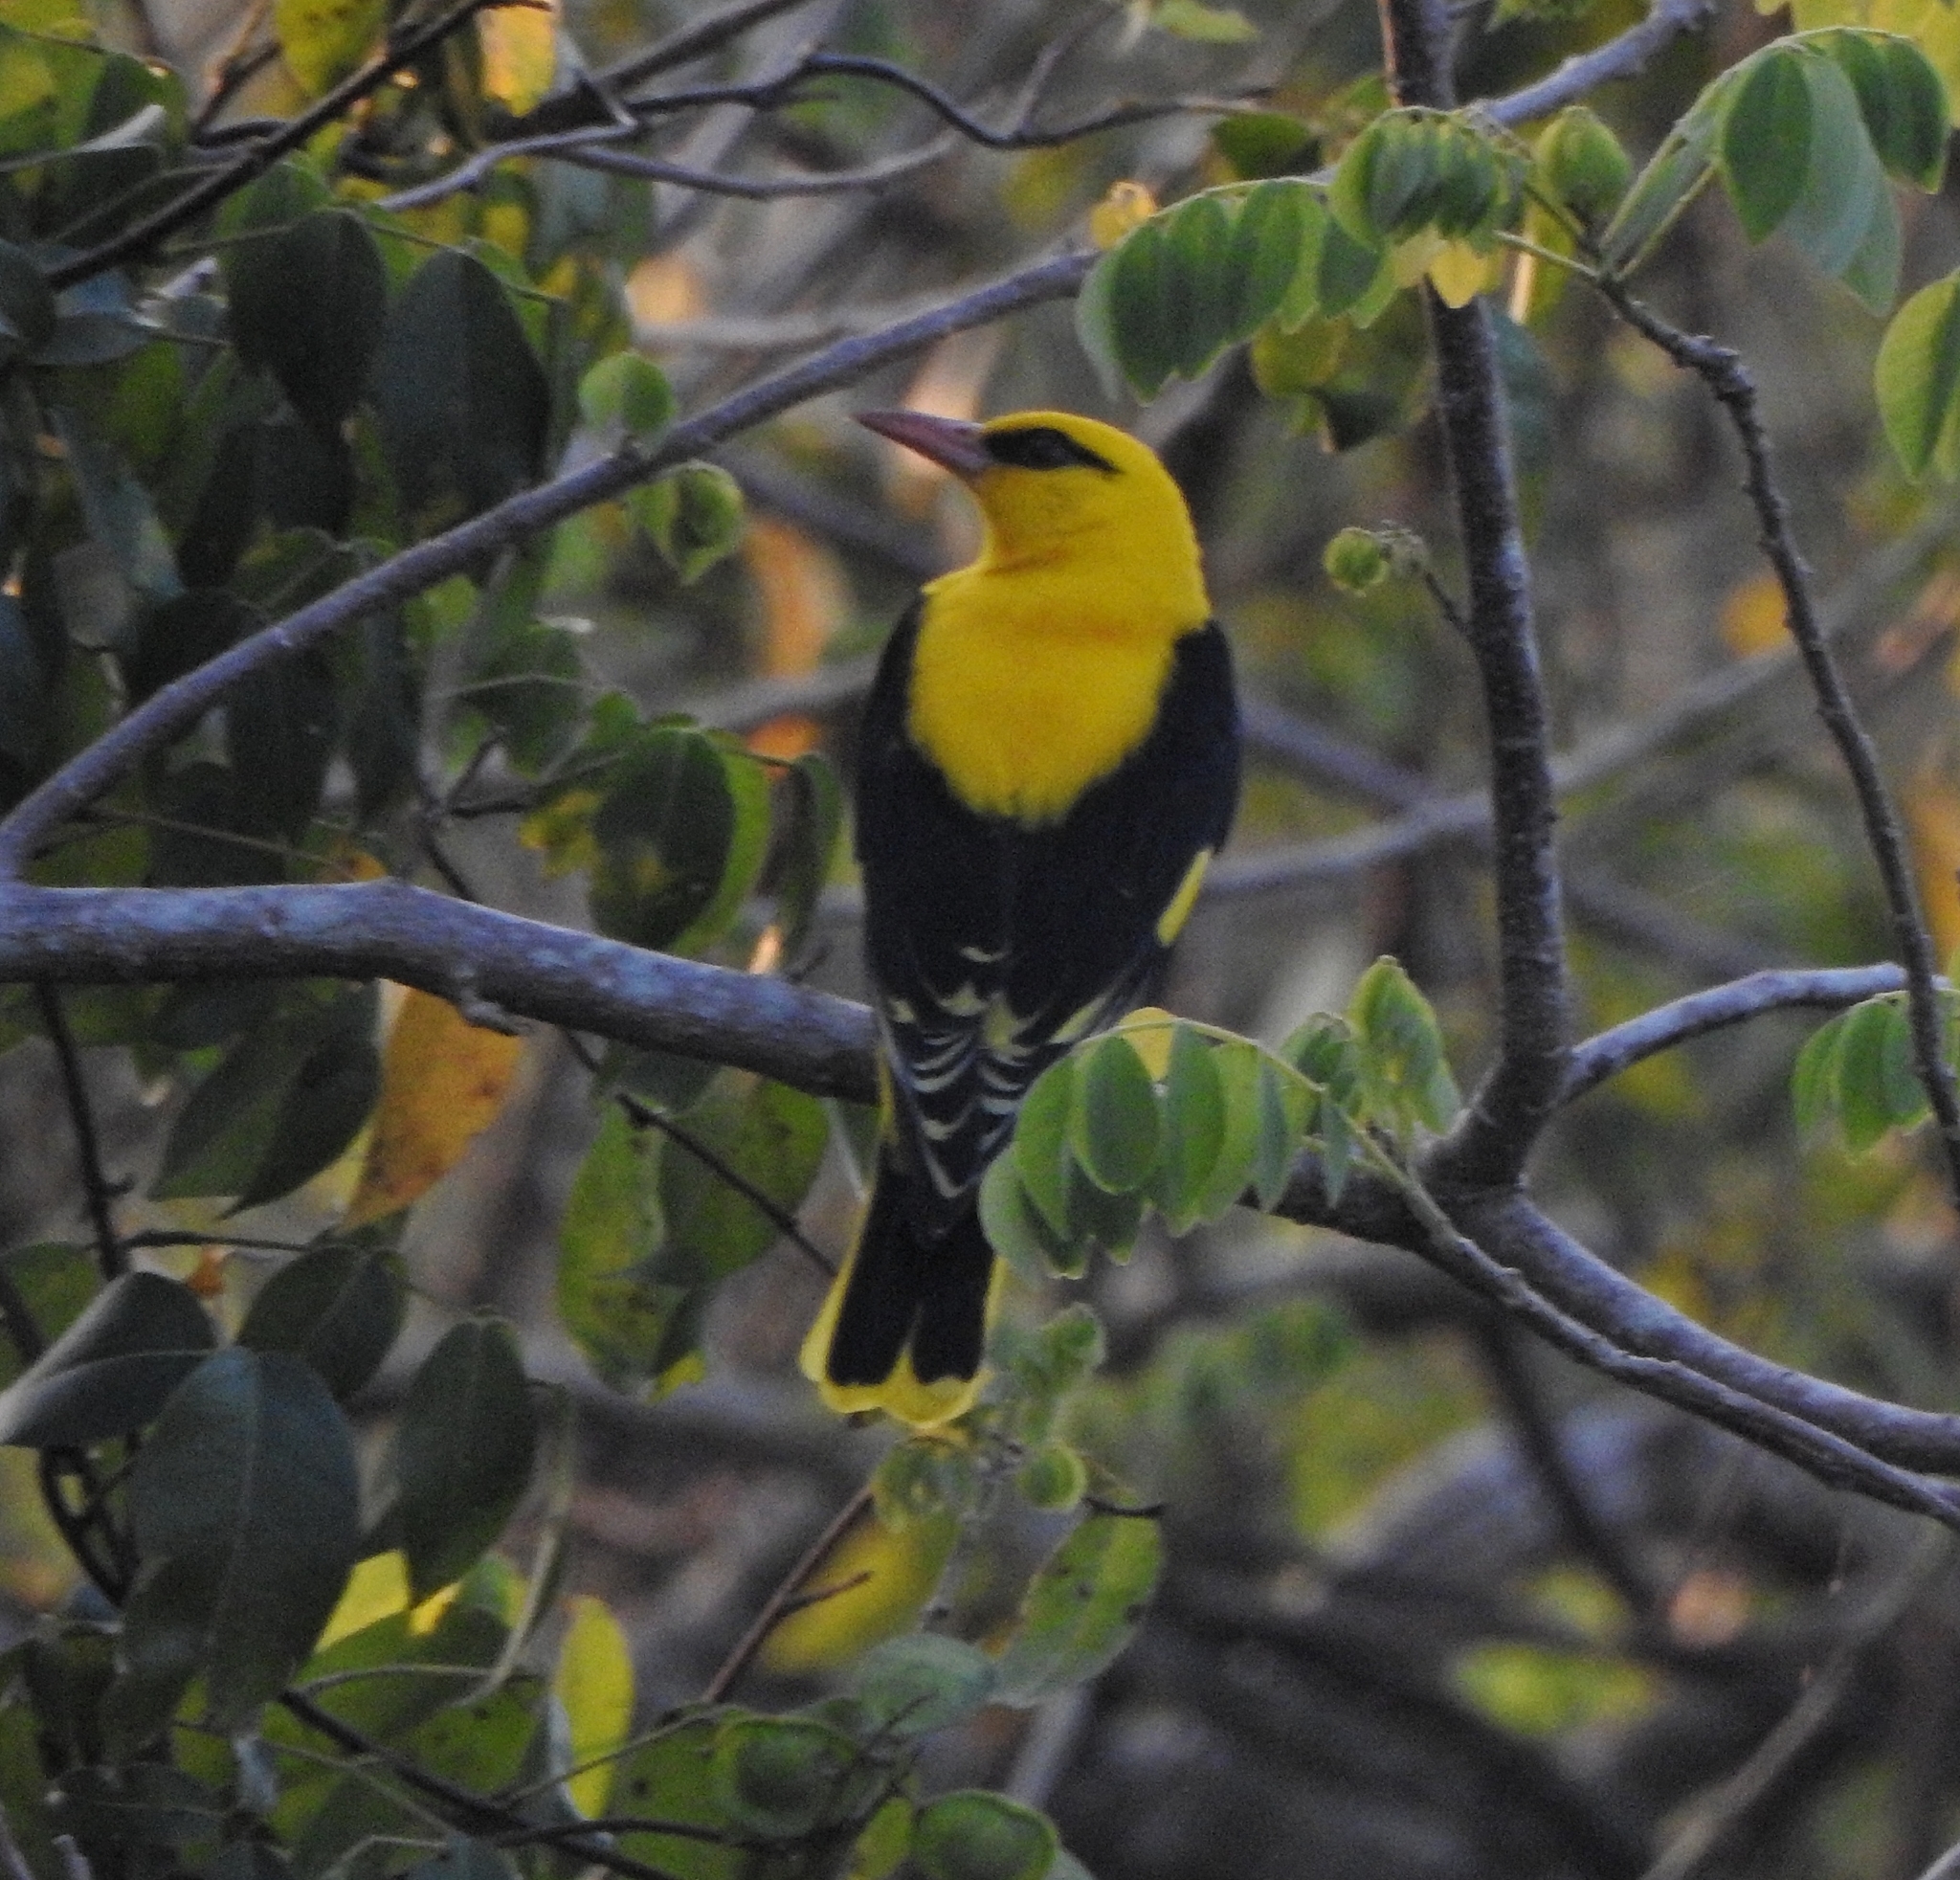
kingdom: Animalia
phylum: Chordata
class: Aves
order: Passeriformes
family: Oriolidae
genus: Oriolus
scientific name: Oriolus kundoo
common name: Indian golden oriole
